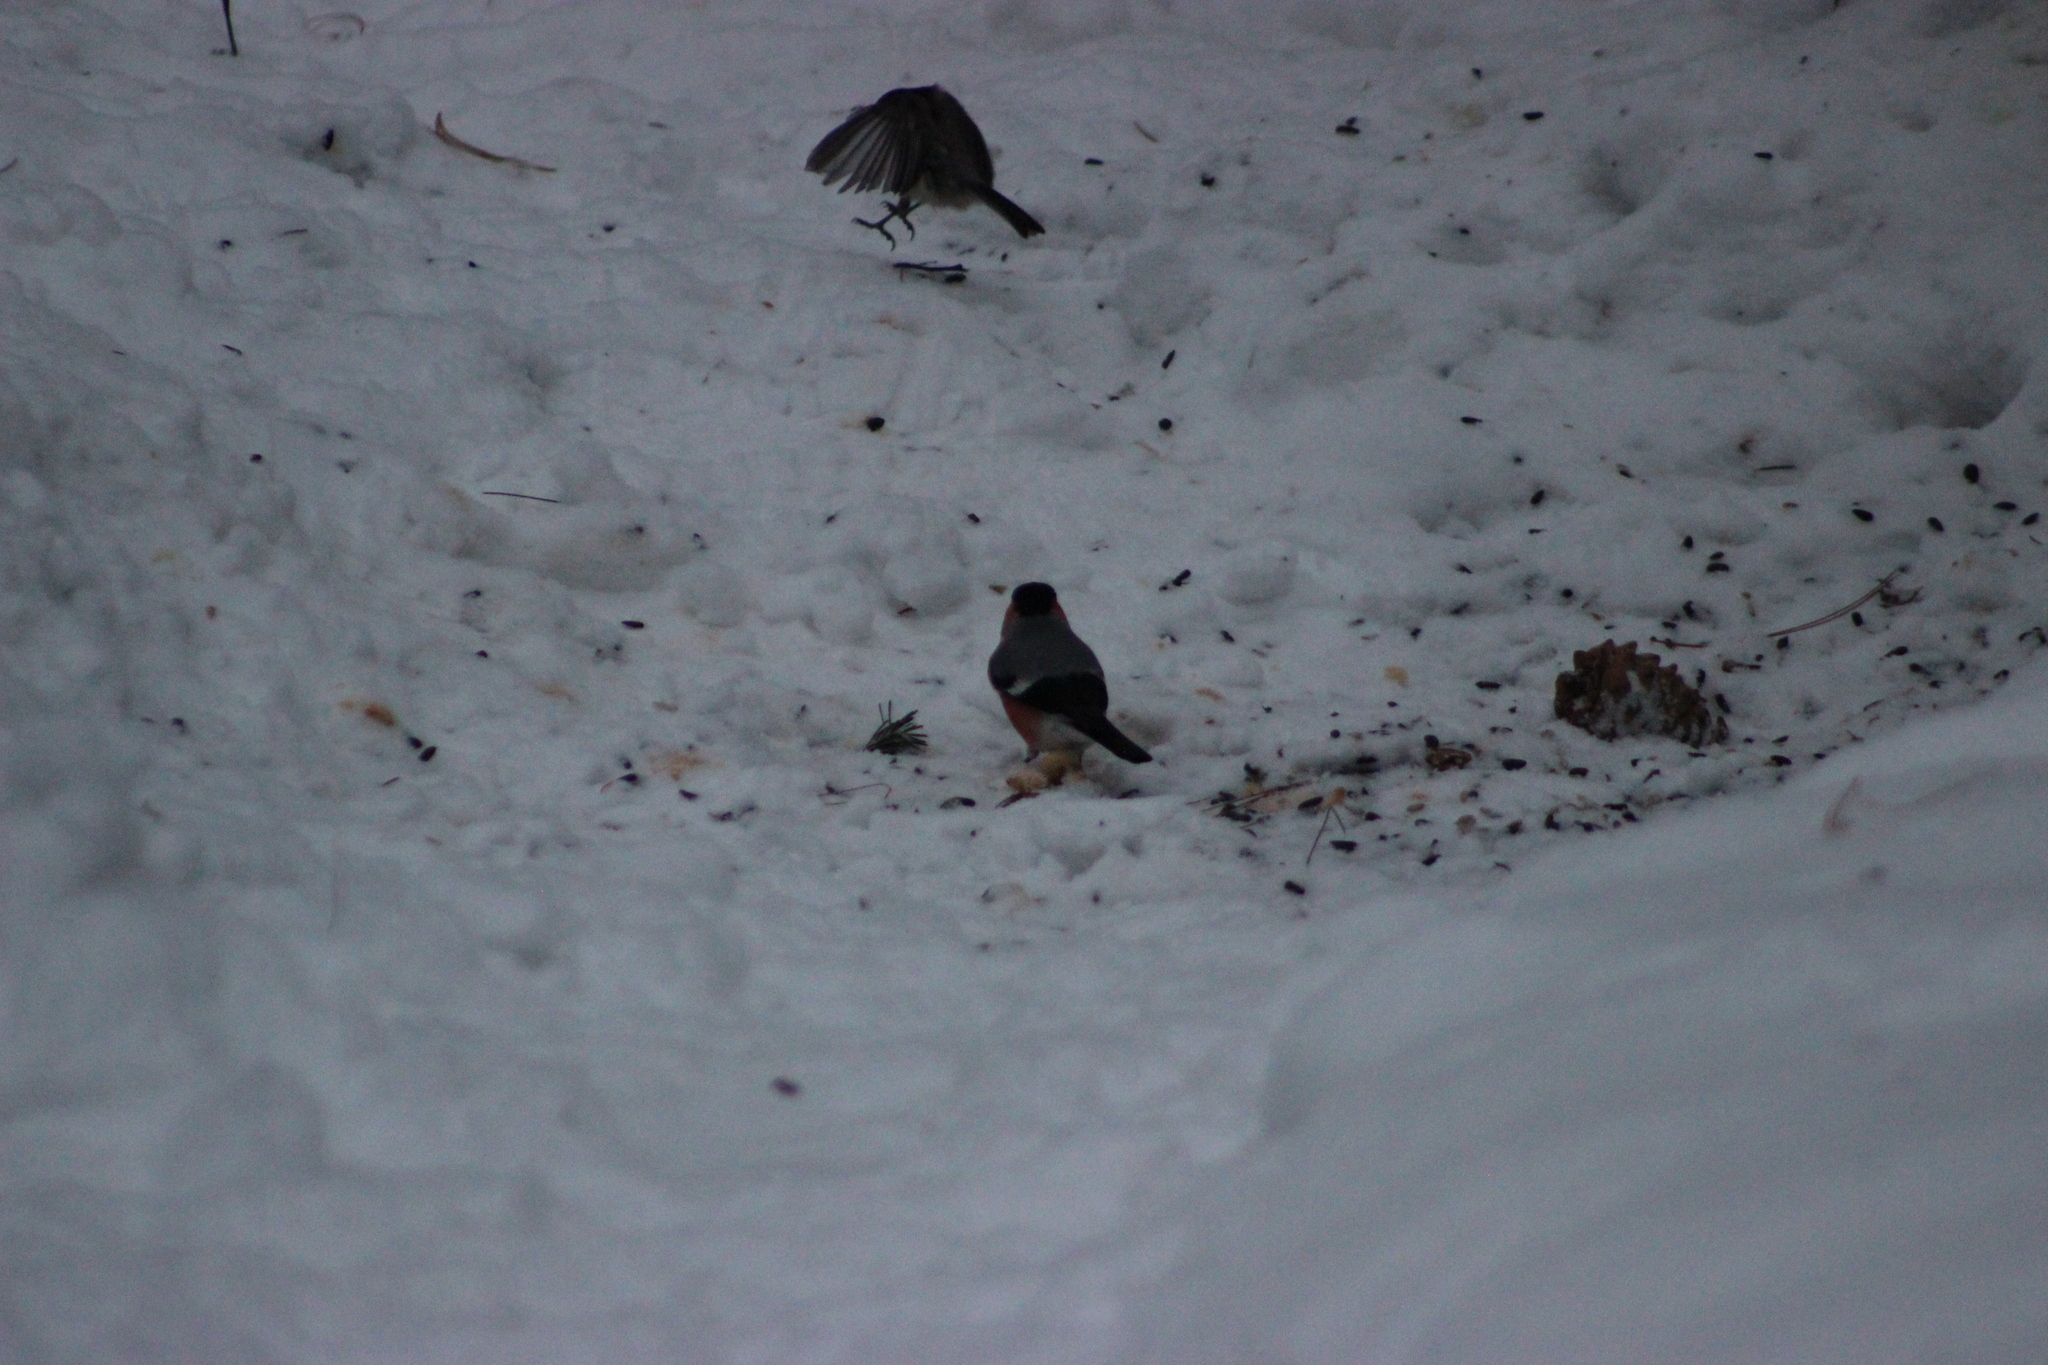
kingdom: Animalia
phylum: Chordata
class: Aves
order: Passeriformes
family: Fringillidae
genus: Pyrrhula
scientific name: Pyrrhula pyrrhula
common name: Eurasian bullfinch
